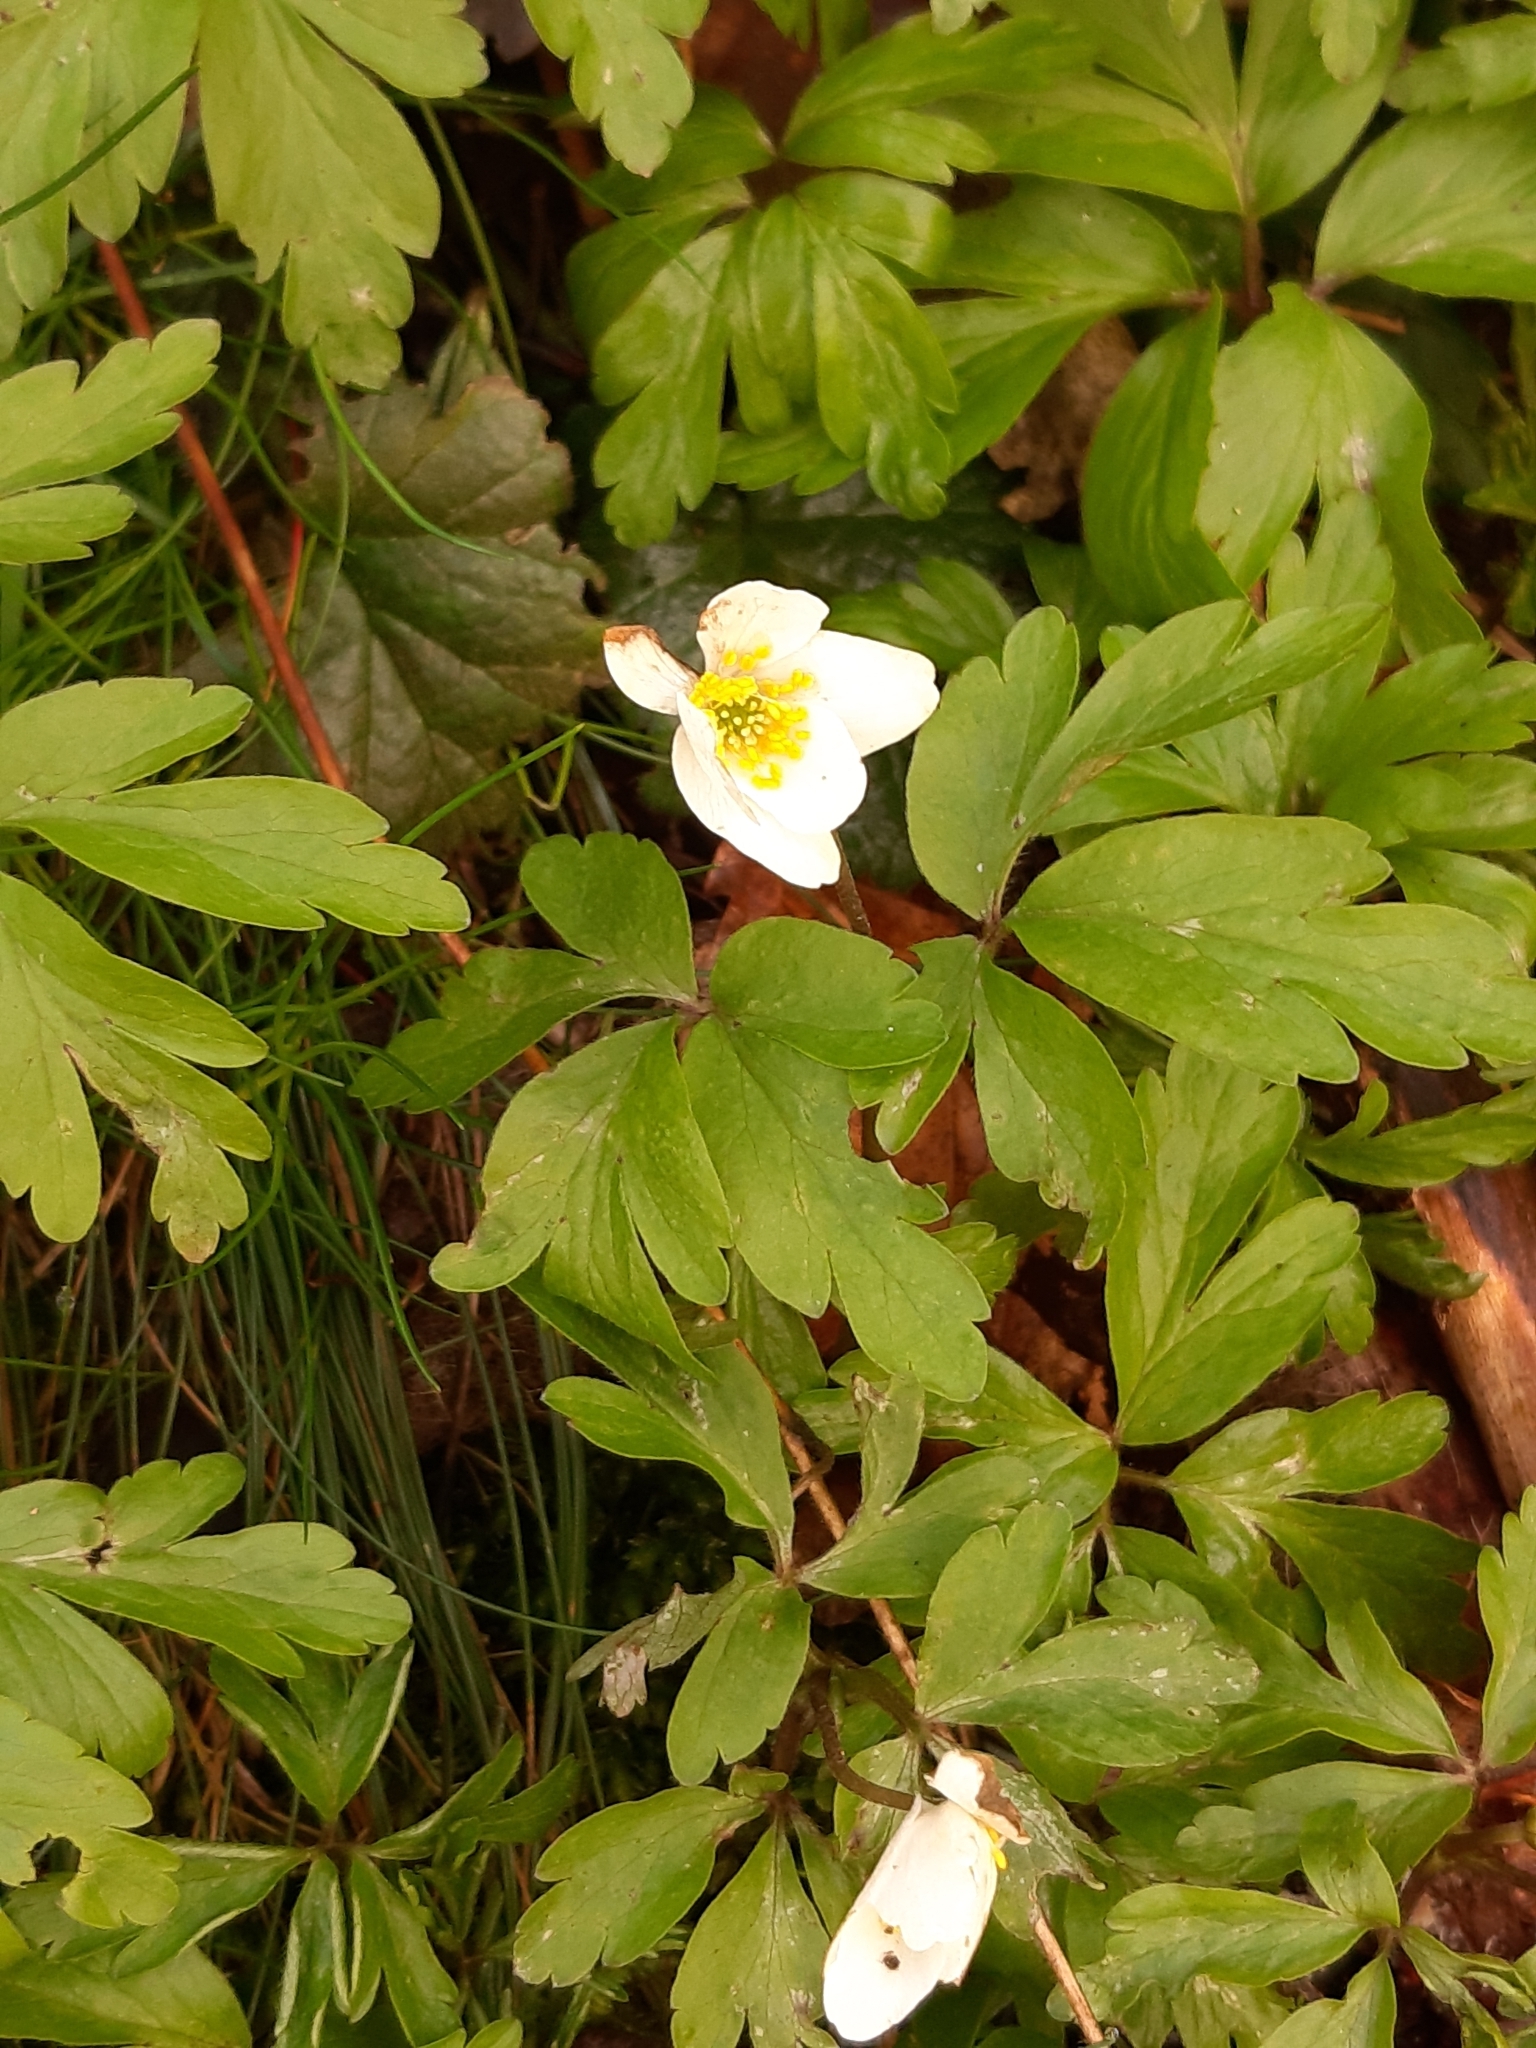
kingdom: Plantae
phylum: Tracheophyta
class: Magnoliopsida
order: Ranunculales
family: Ranunculaceae
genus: Anemone
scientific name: Anemone nemorosa
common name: Wood anemone
